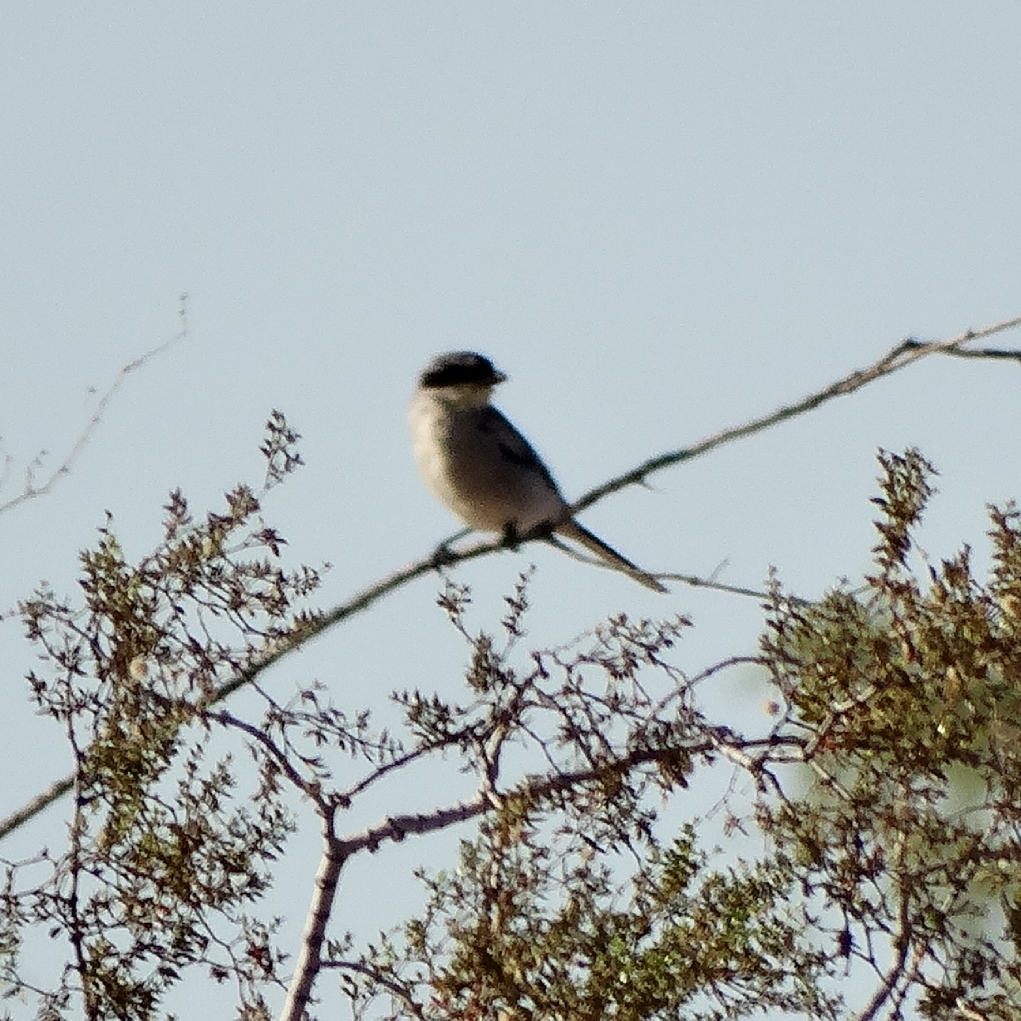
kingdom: Animalia
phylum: Chordata
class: Aves
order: Passeriformes
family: Laniidae
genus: Lanius
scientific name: Lanius ludovicianus
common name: Loggerhead shrike
